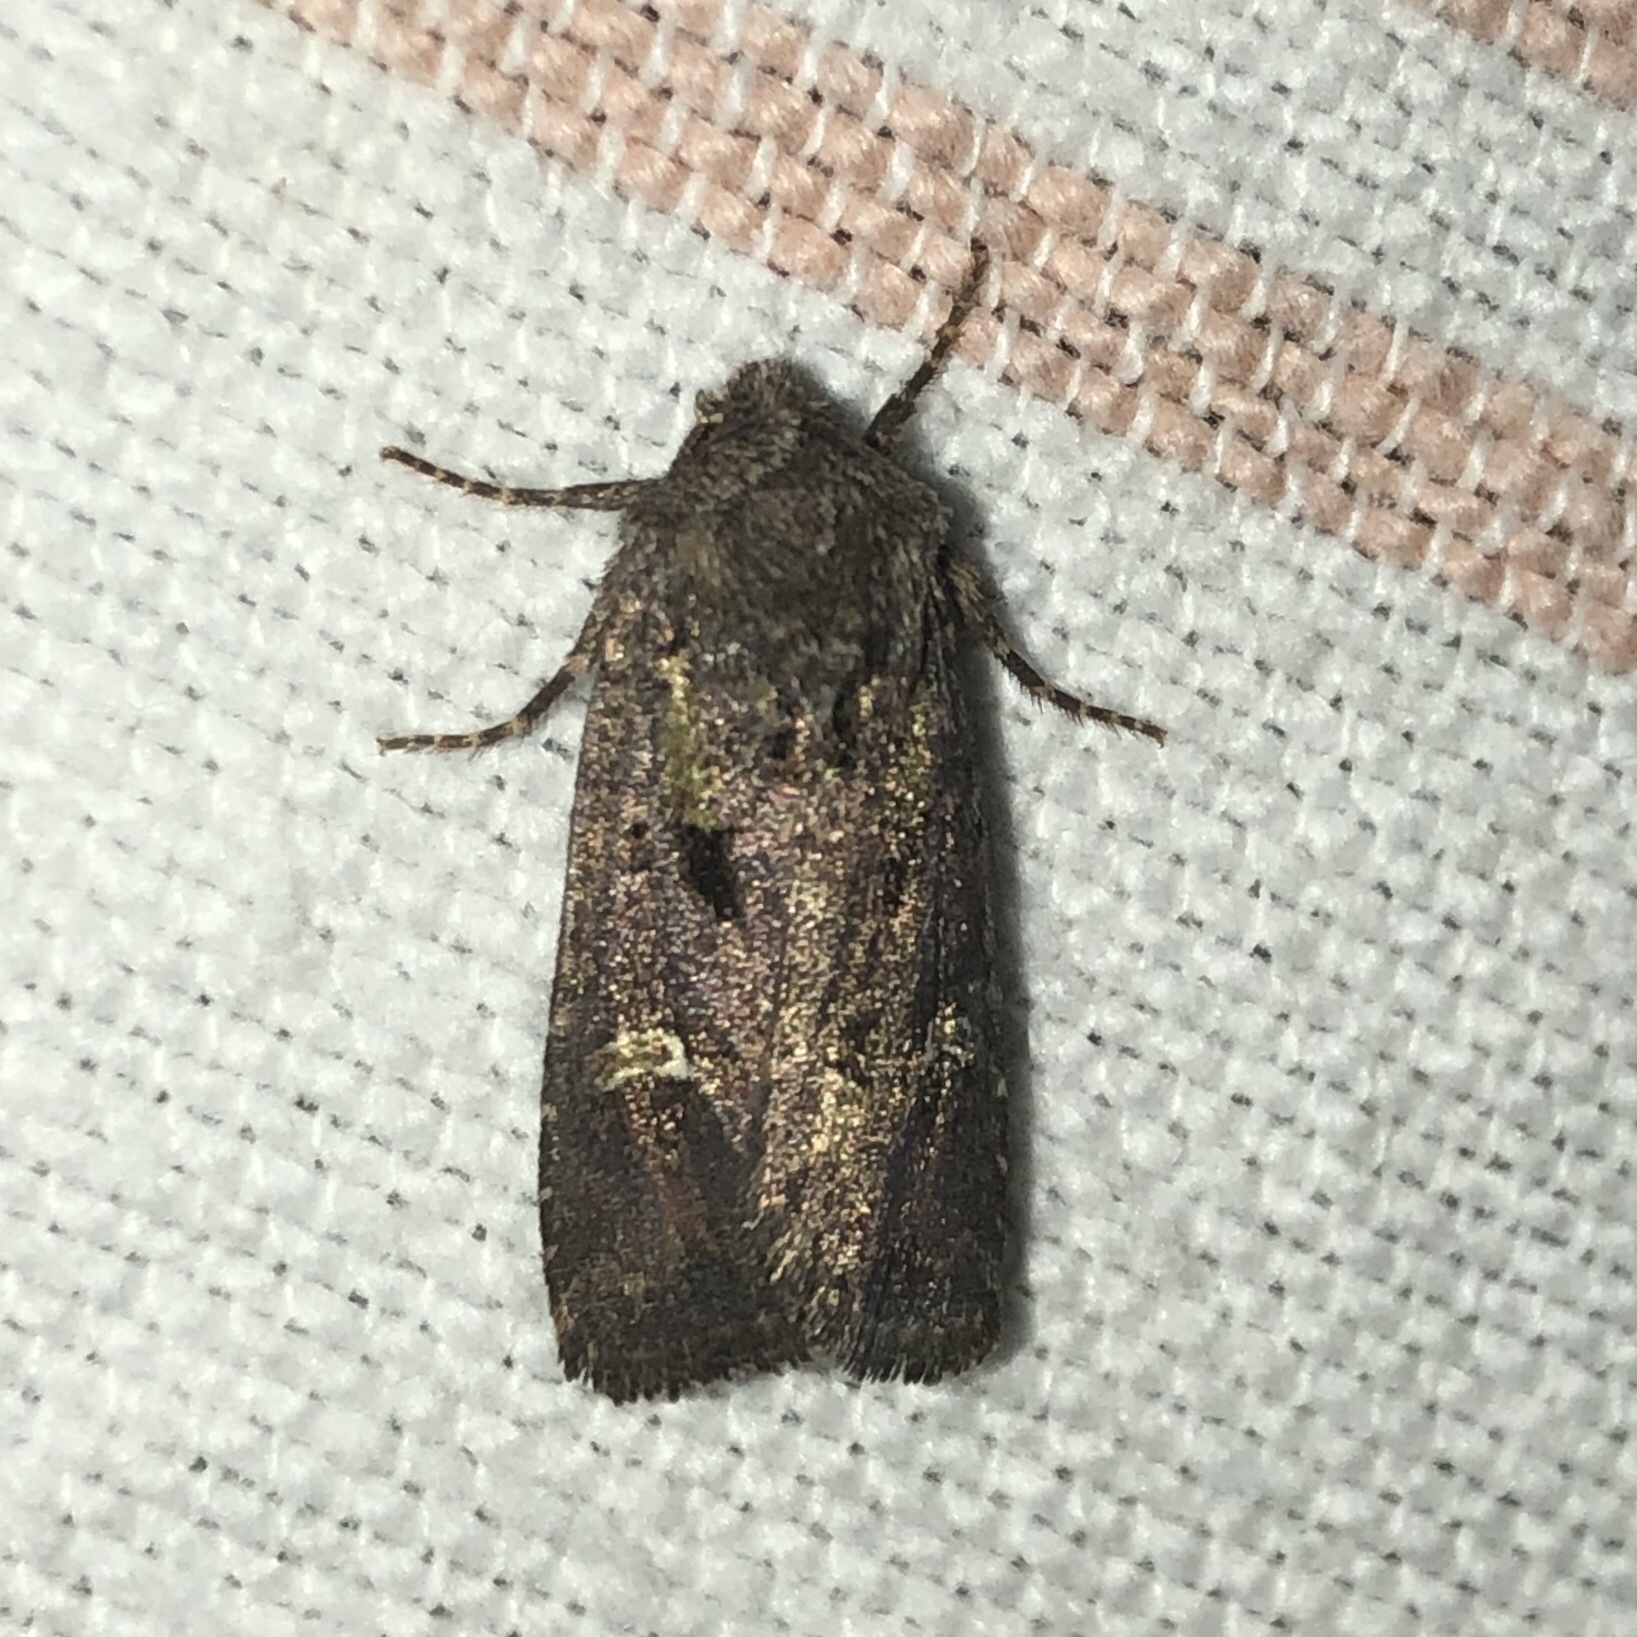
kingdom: Animalia
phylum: Arthropoda
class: Insecta
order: Lepidoptera
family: Noctuidae
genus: Lacinipolia
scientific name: Lacinipolia renigera
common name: Kidney-spotted minor
